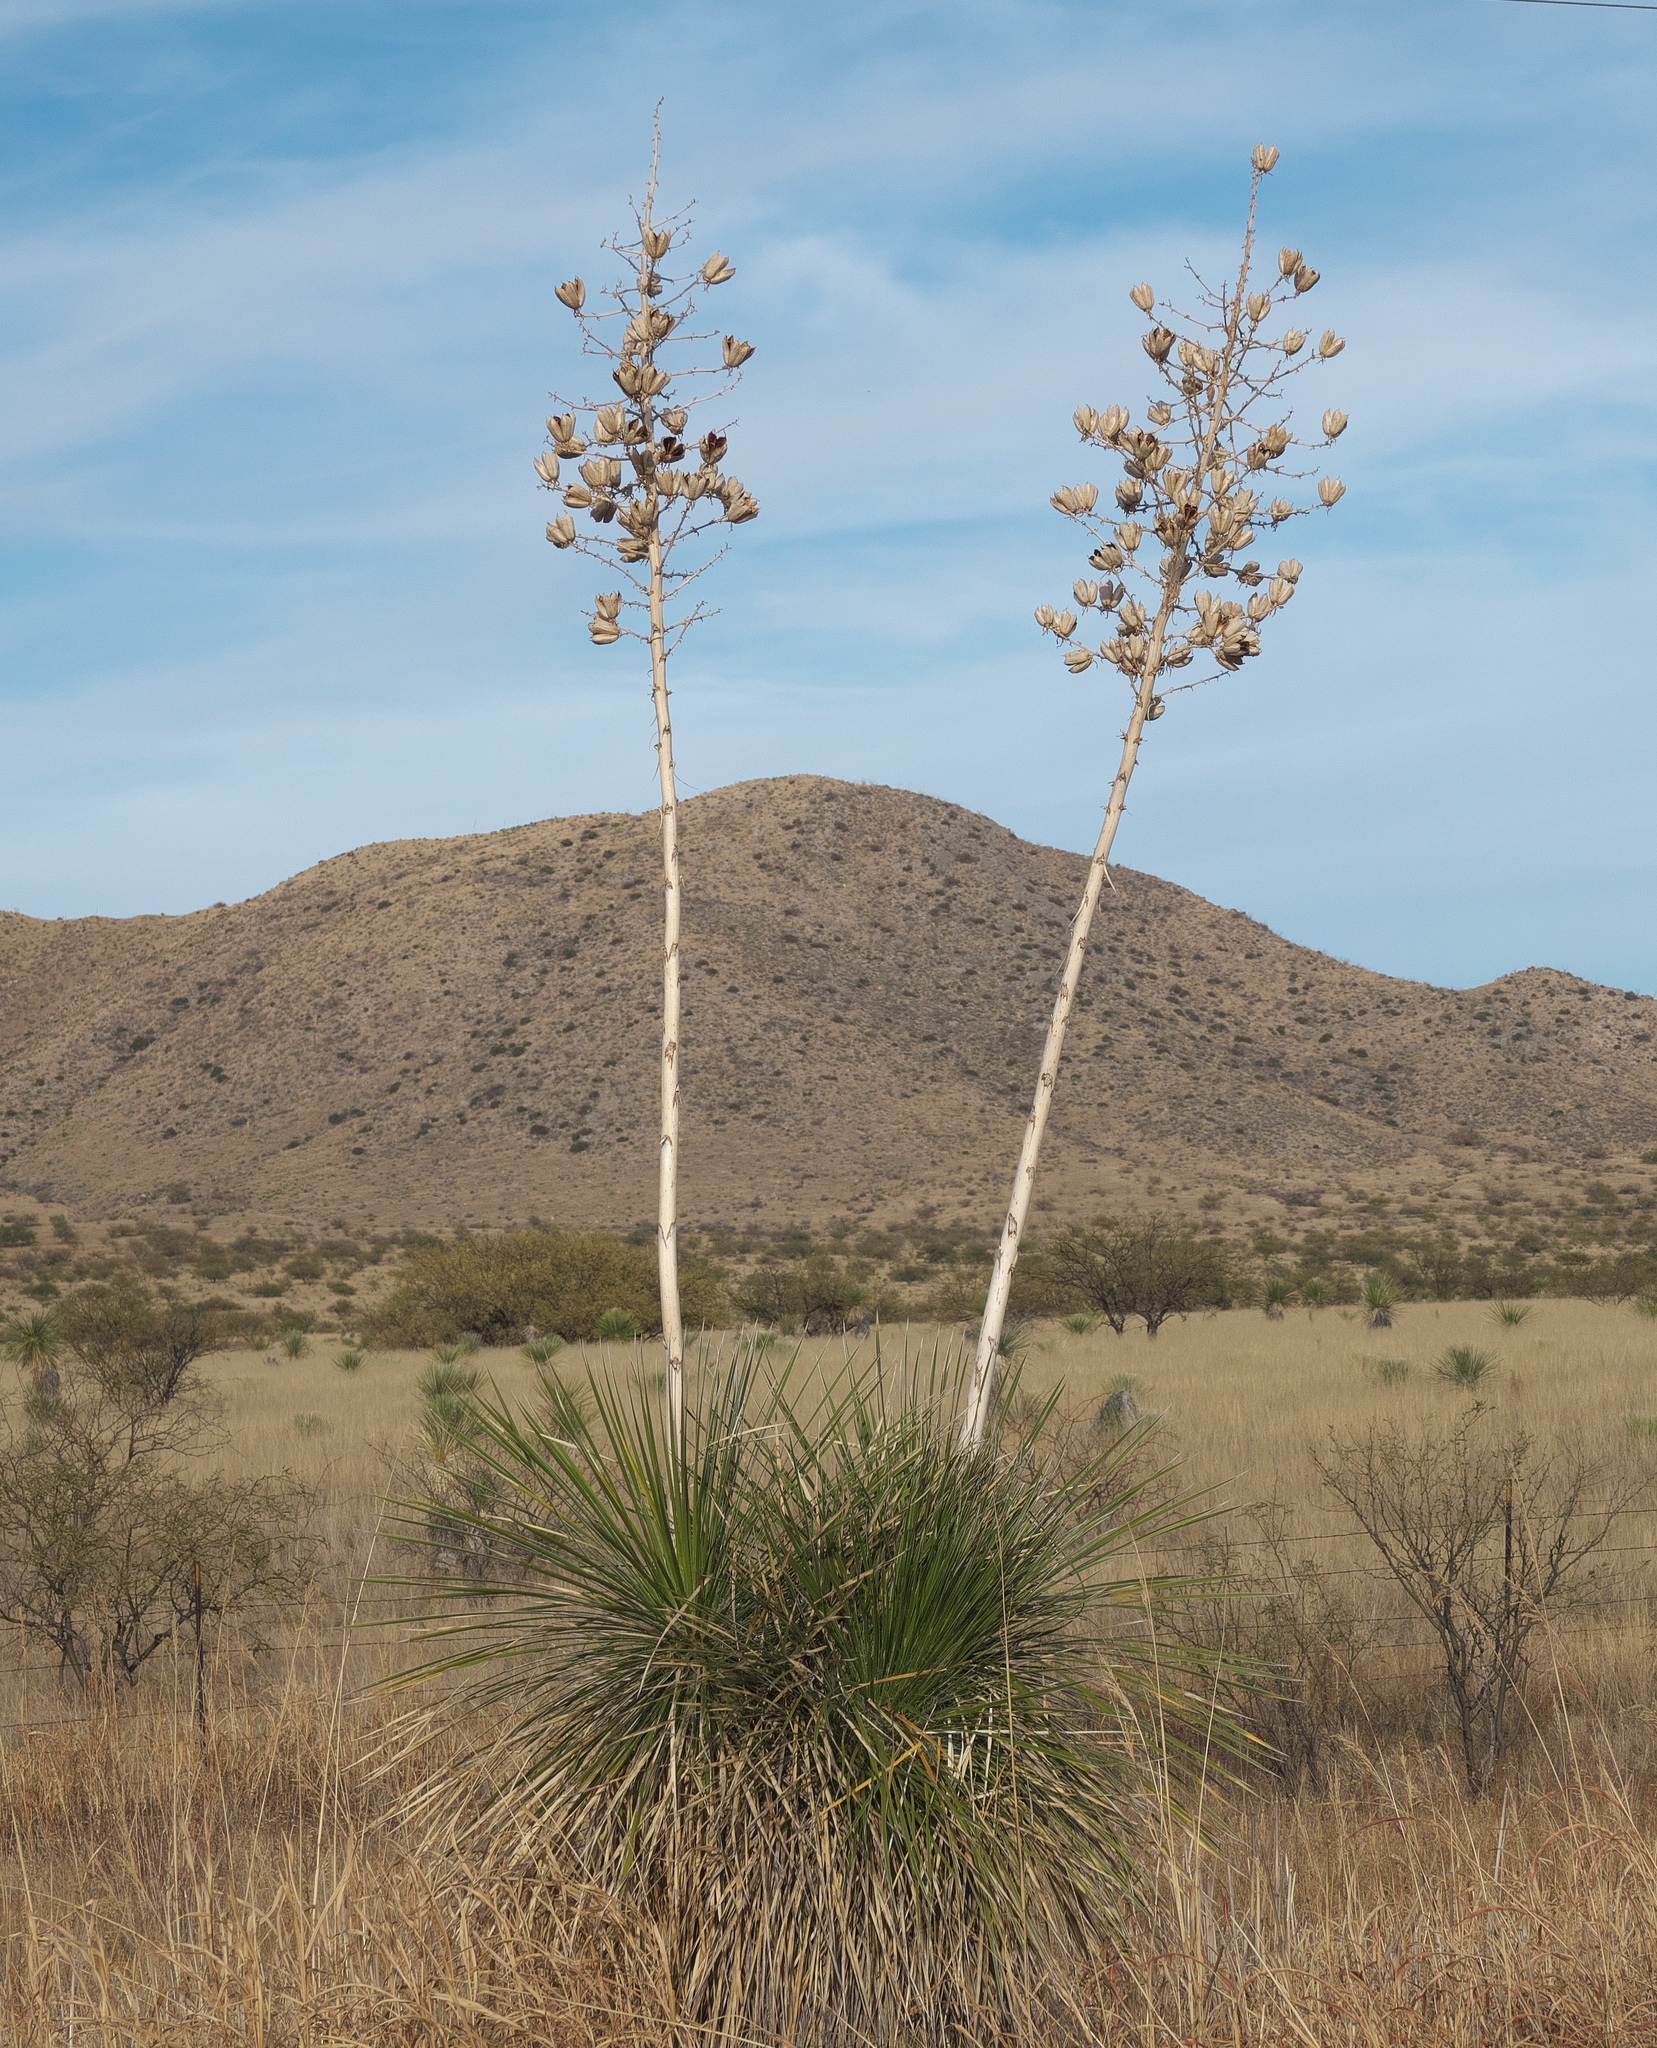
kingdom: Plantae
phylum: Tracheophyta
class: Liliopsida
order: Asparagales
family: Asparagaceae
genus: Yucca
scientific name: Yucca elata
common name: Palmella
